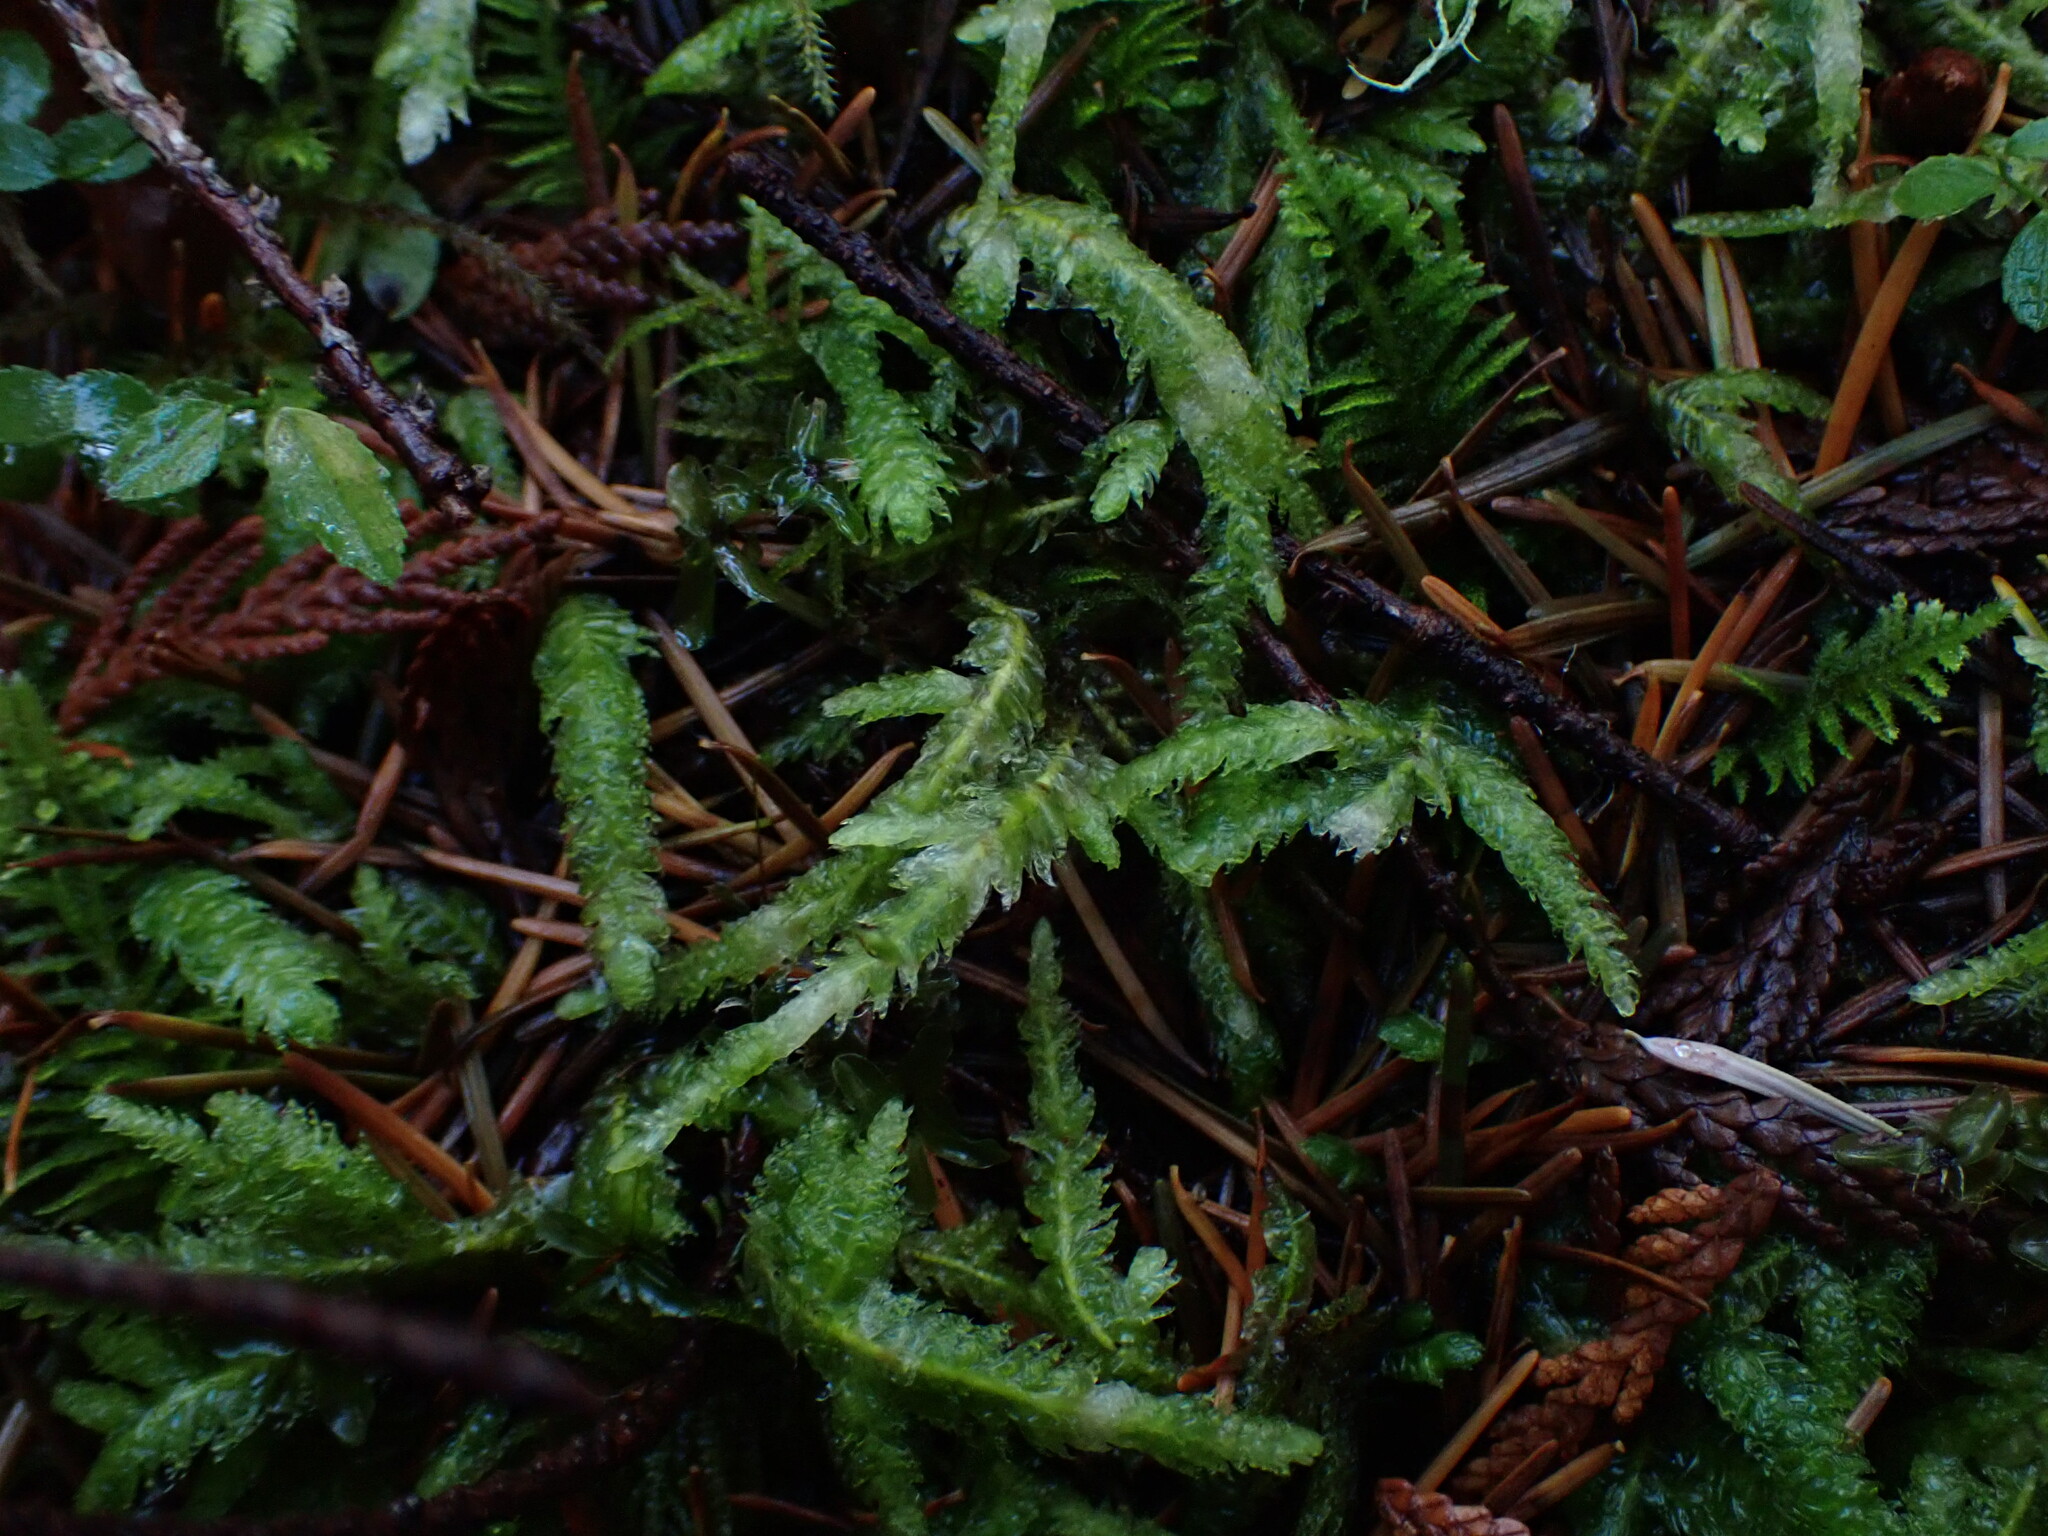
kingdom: Plantae
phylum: Bryophyta
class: Bryopsida
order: Hypnales
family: Plagiotheciaceae
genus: Plagiothecium
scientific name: Plagiothecium undulatum
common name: Waved silk-moss
